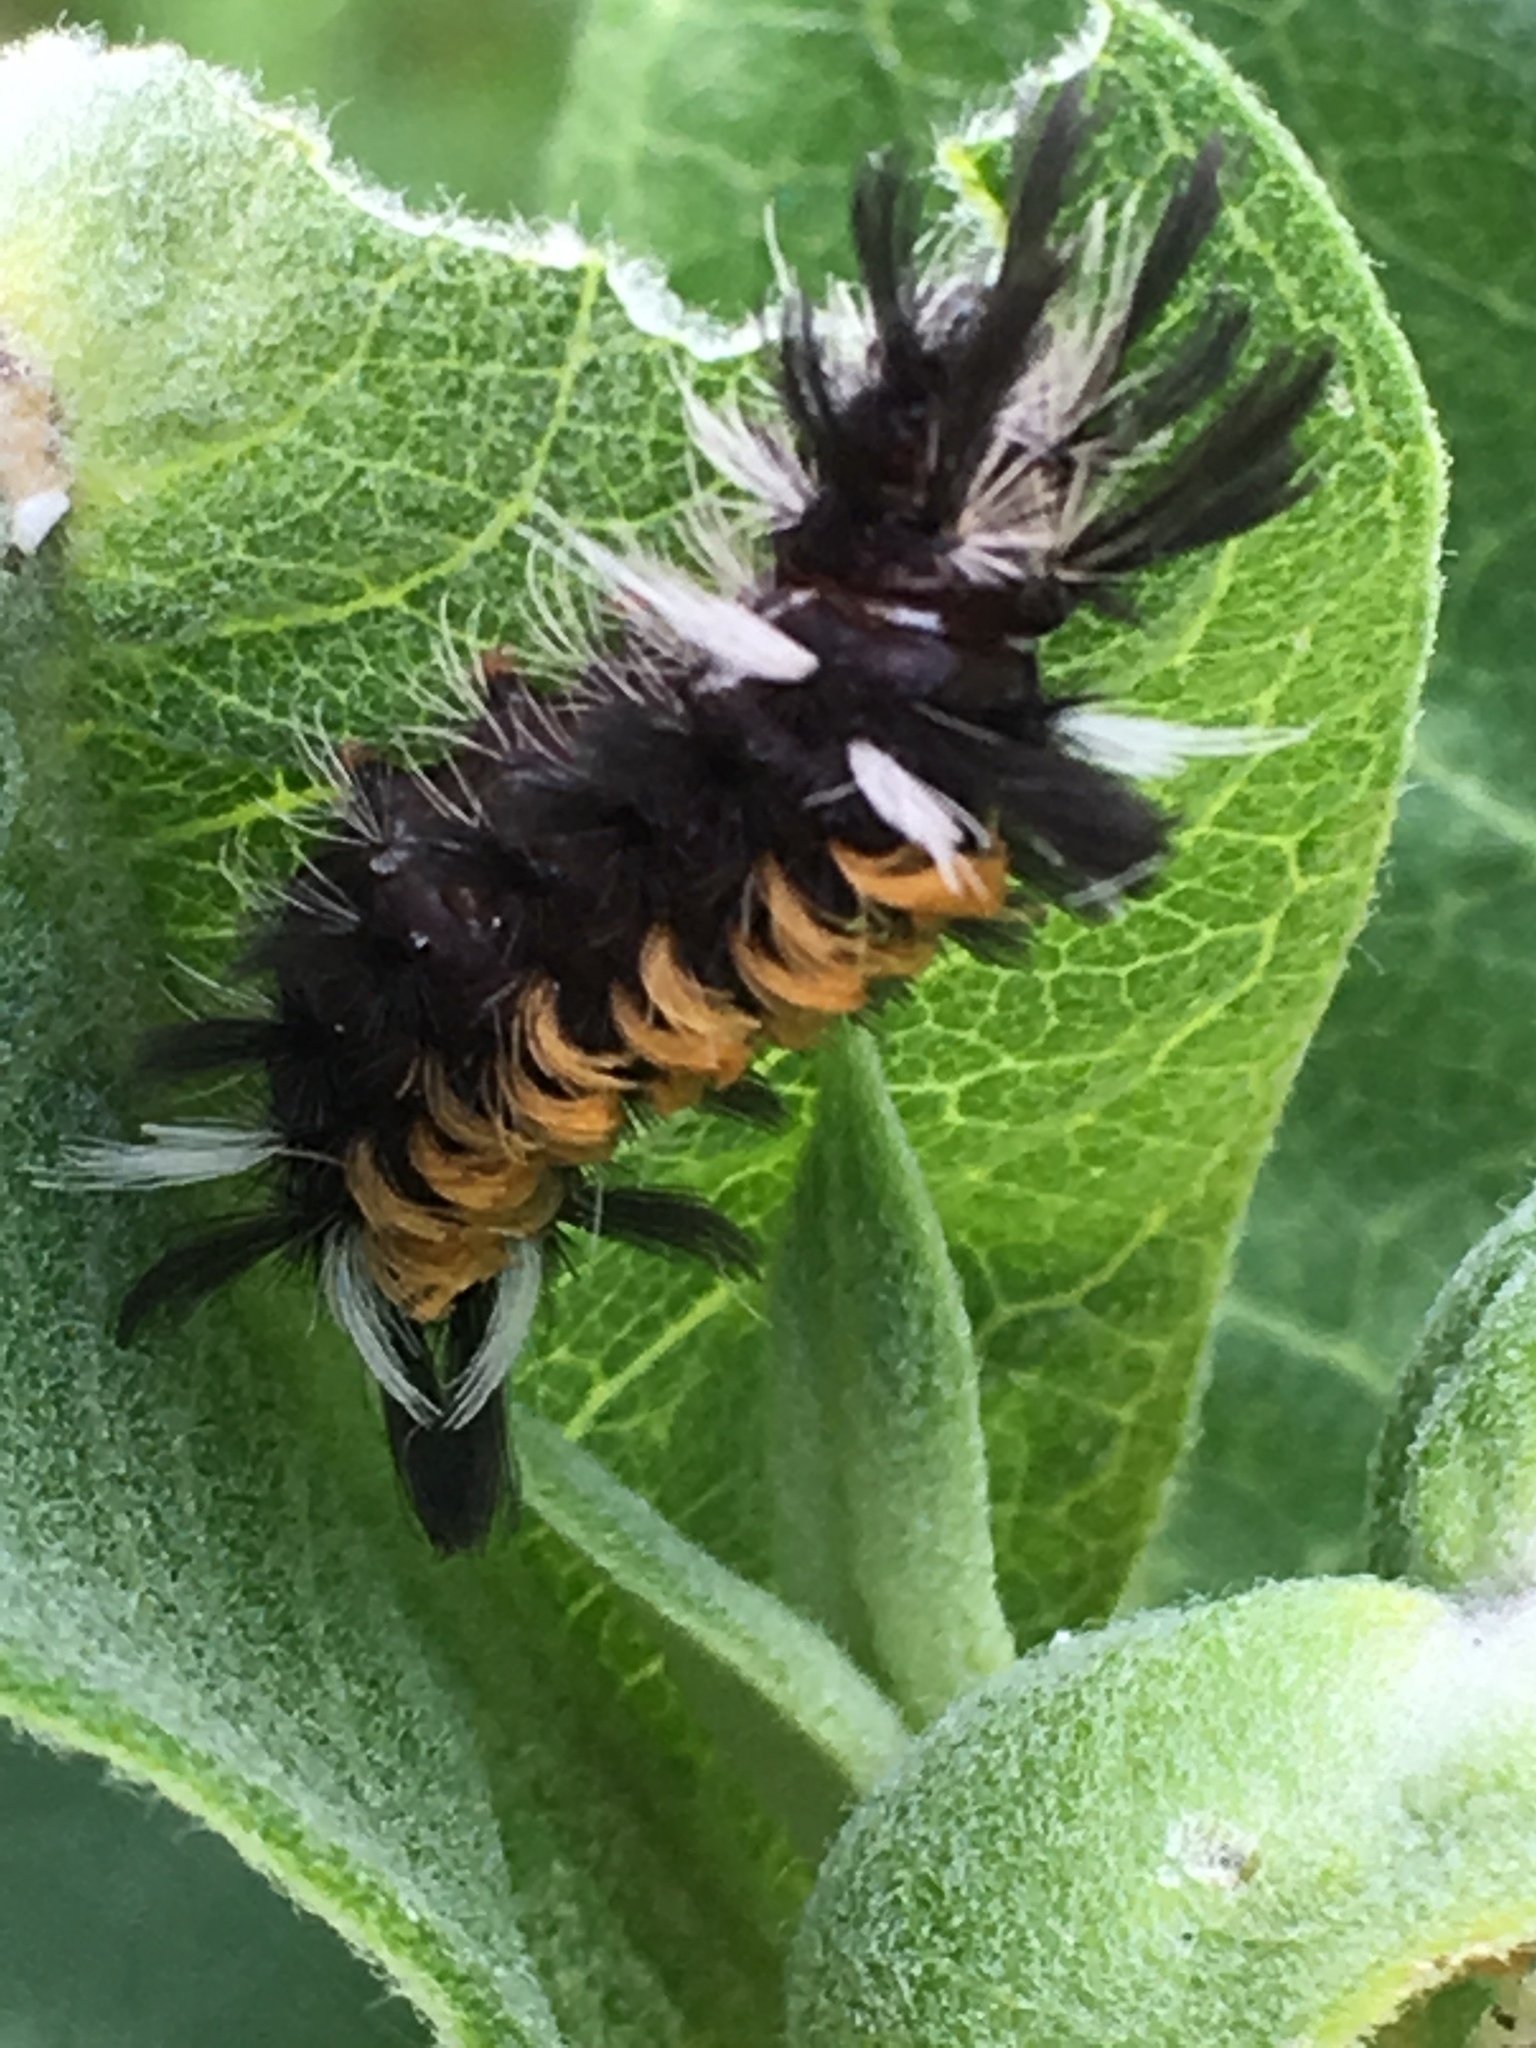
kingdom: Animalia
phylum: Arthropoda
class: Insecta
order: Lepidoptera
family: Erebidae
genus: Euchaetes
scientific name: Euchaetes egle
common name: Milkweed tussock moth
